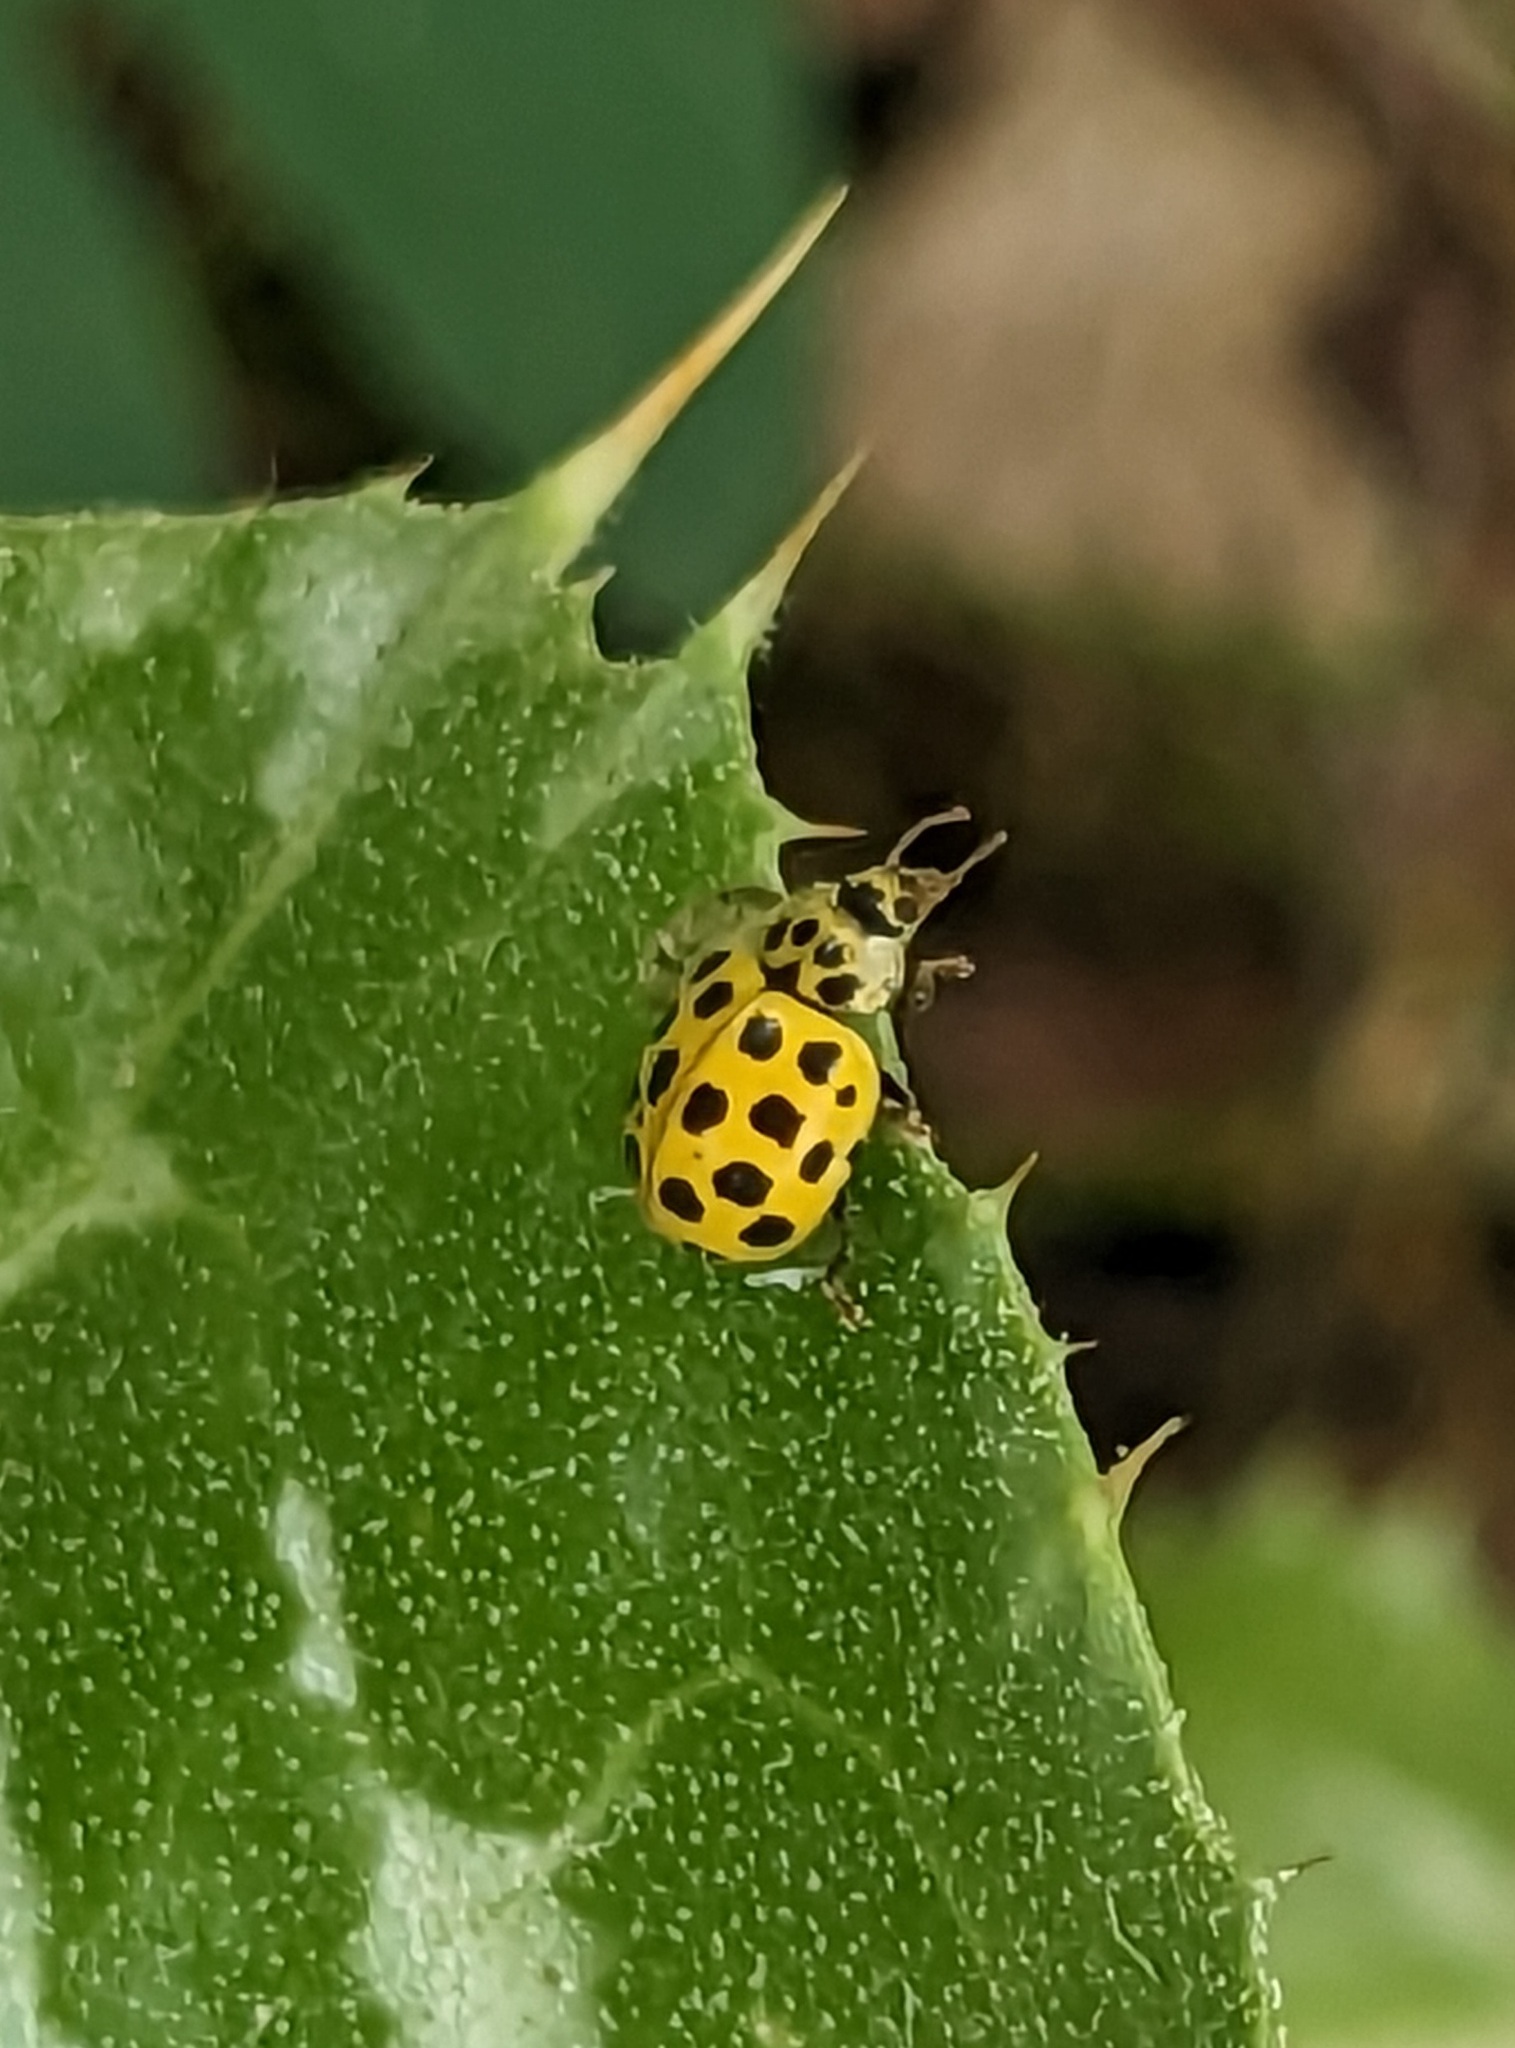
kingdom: Animalia
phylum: Arthropoda
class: Insecta
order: Coleoptera
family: Coccinellidae
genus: Psyllobora
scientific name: Psyllobora vigintiduopunctata
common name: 22-spot ladybird
